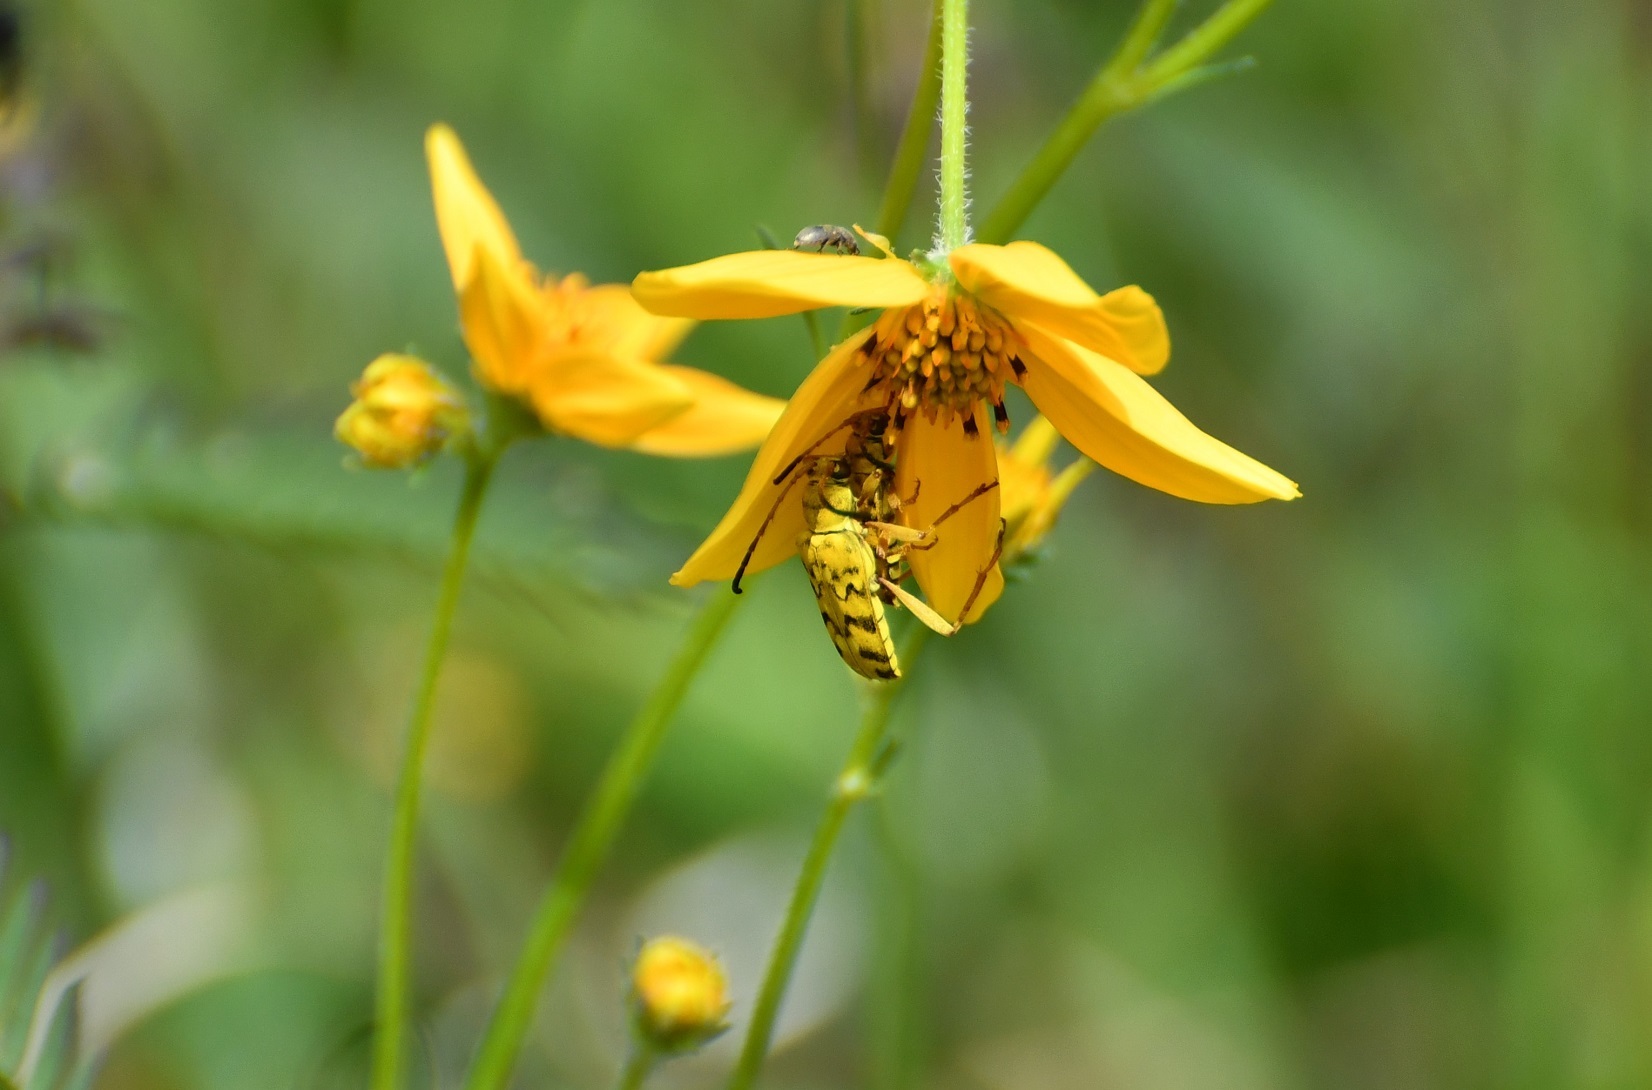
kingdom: Animalia
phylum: Arthropoda
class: Insecta
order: Coleoptera
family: Cerambycidae
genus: Ochraethes
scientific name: Ochraethes pollinosus
